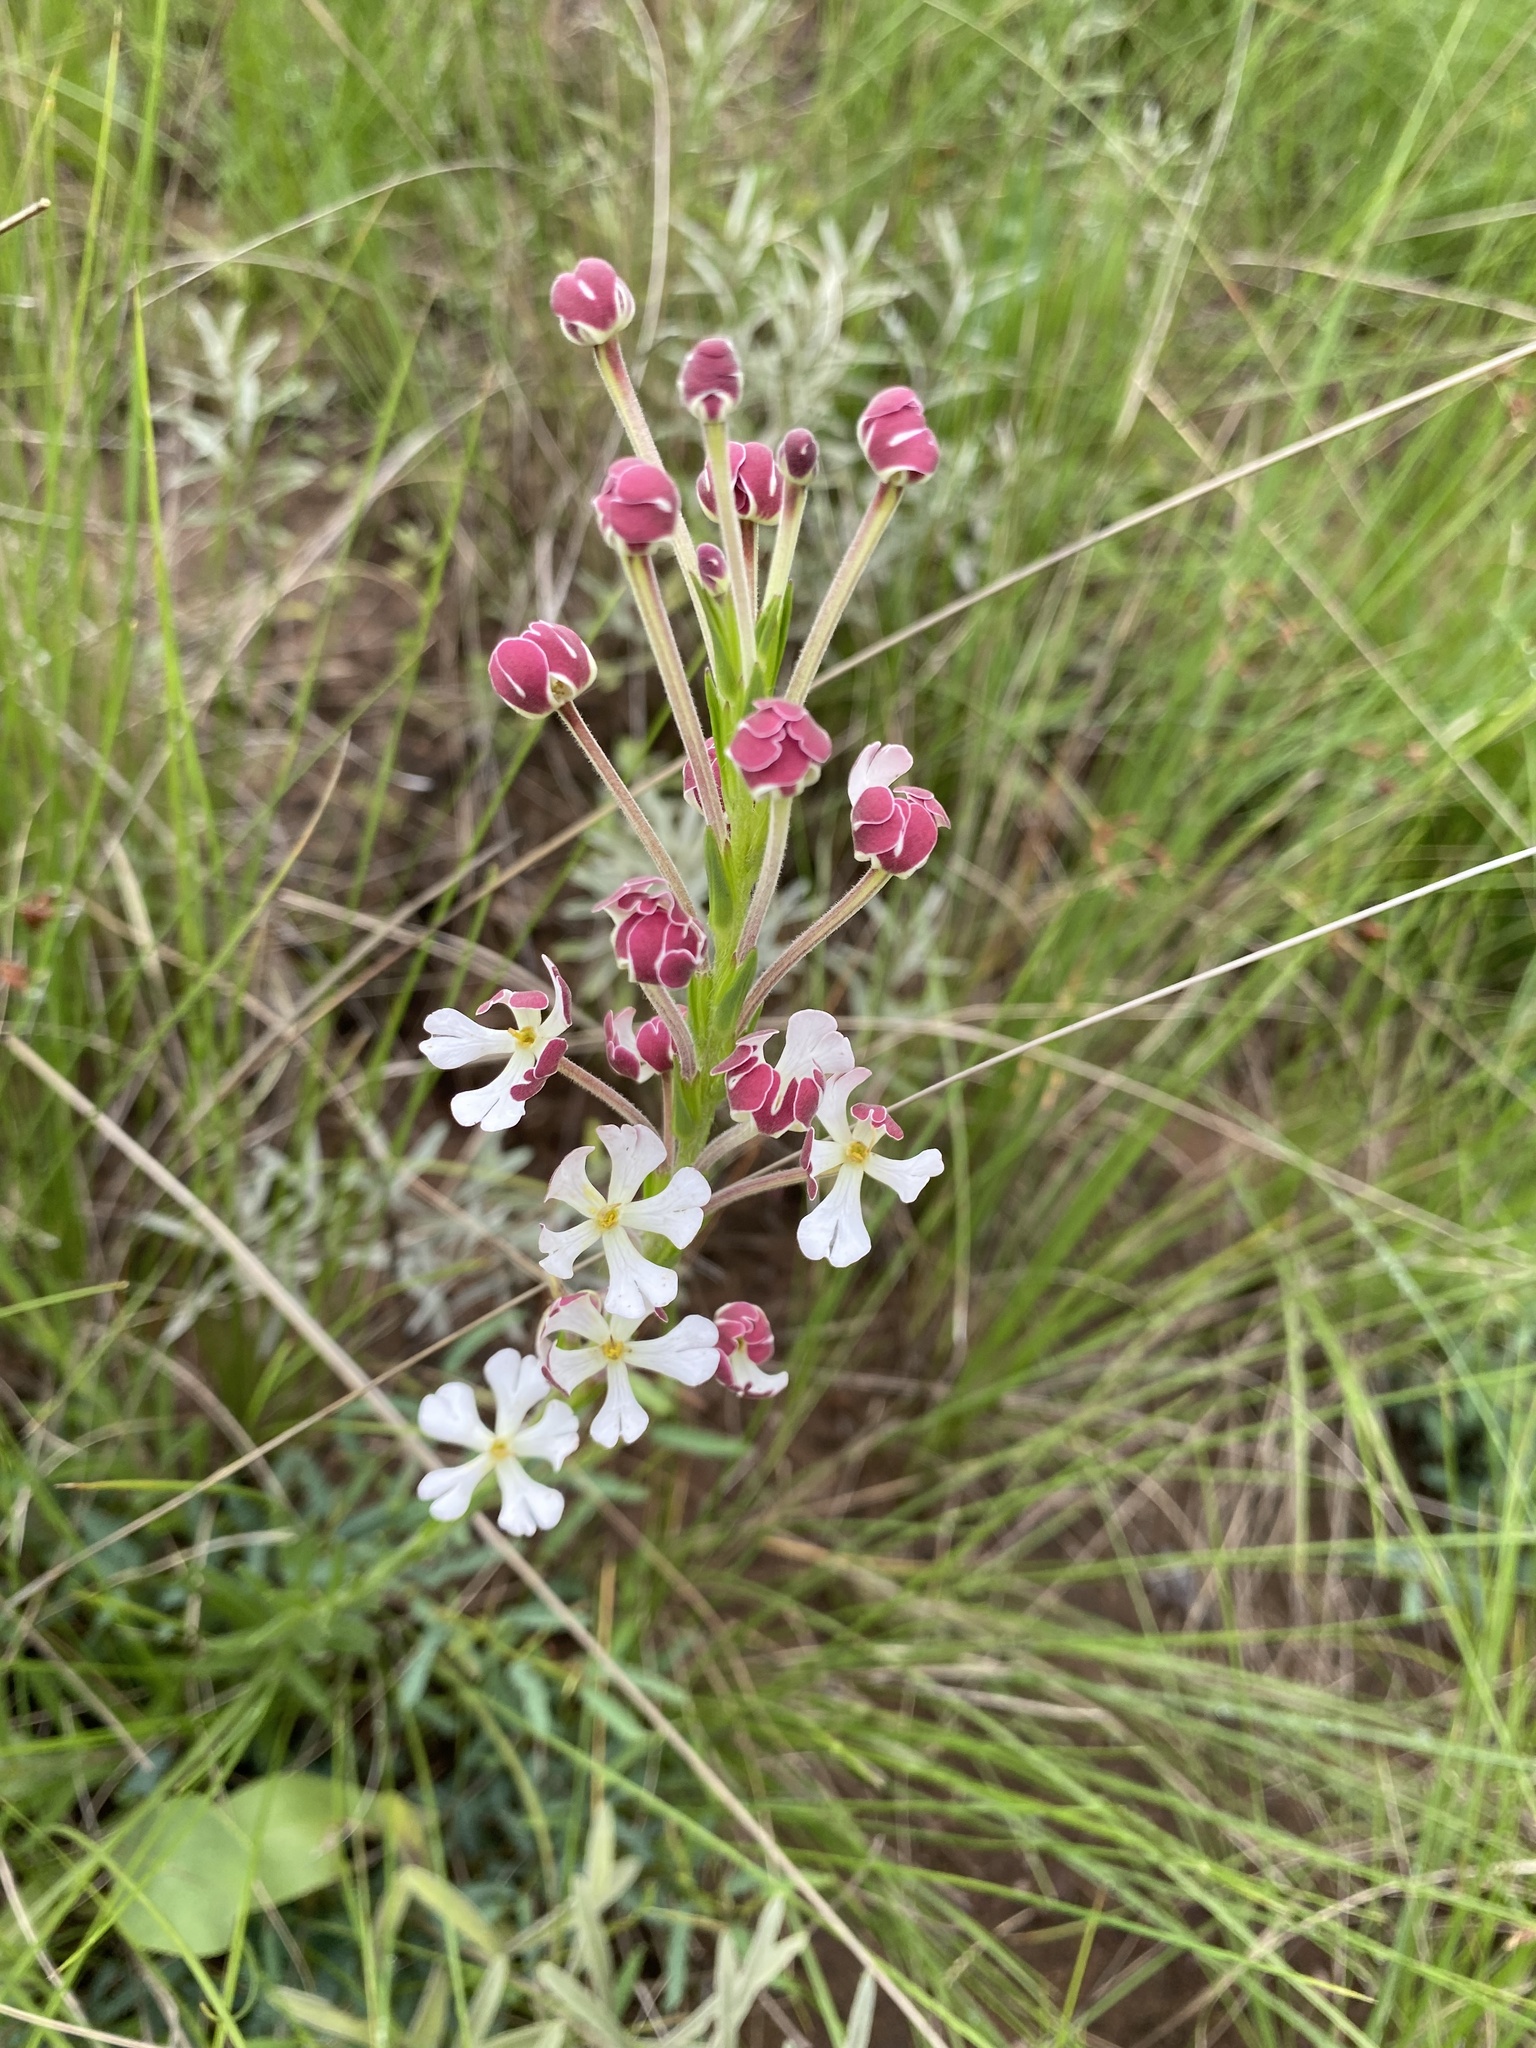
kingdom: Plantae
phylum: Tracheophyta
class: Magnoliopsida
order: Lamiales
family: Scrophulariaceae
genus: Zaluzianskya
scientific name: Zaluzianskya capensis
